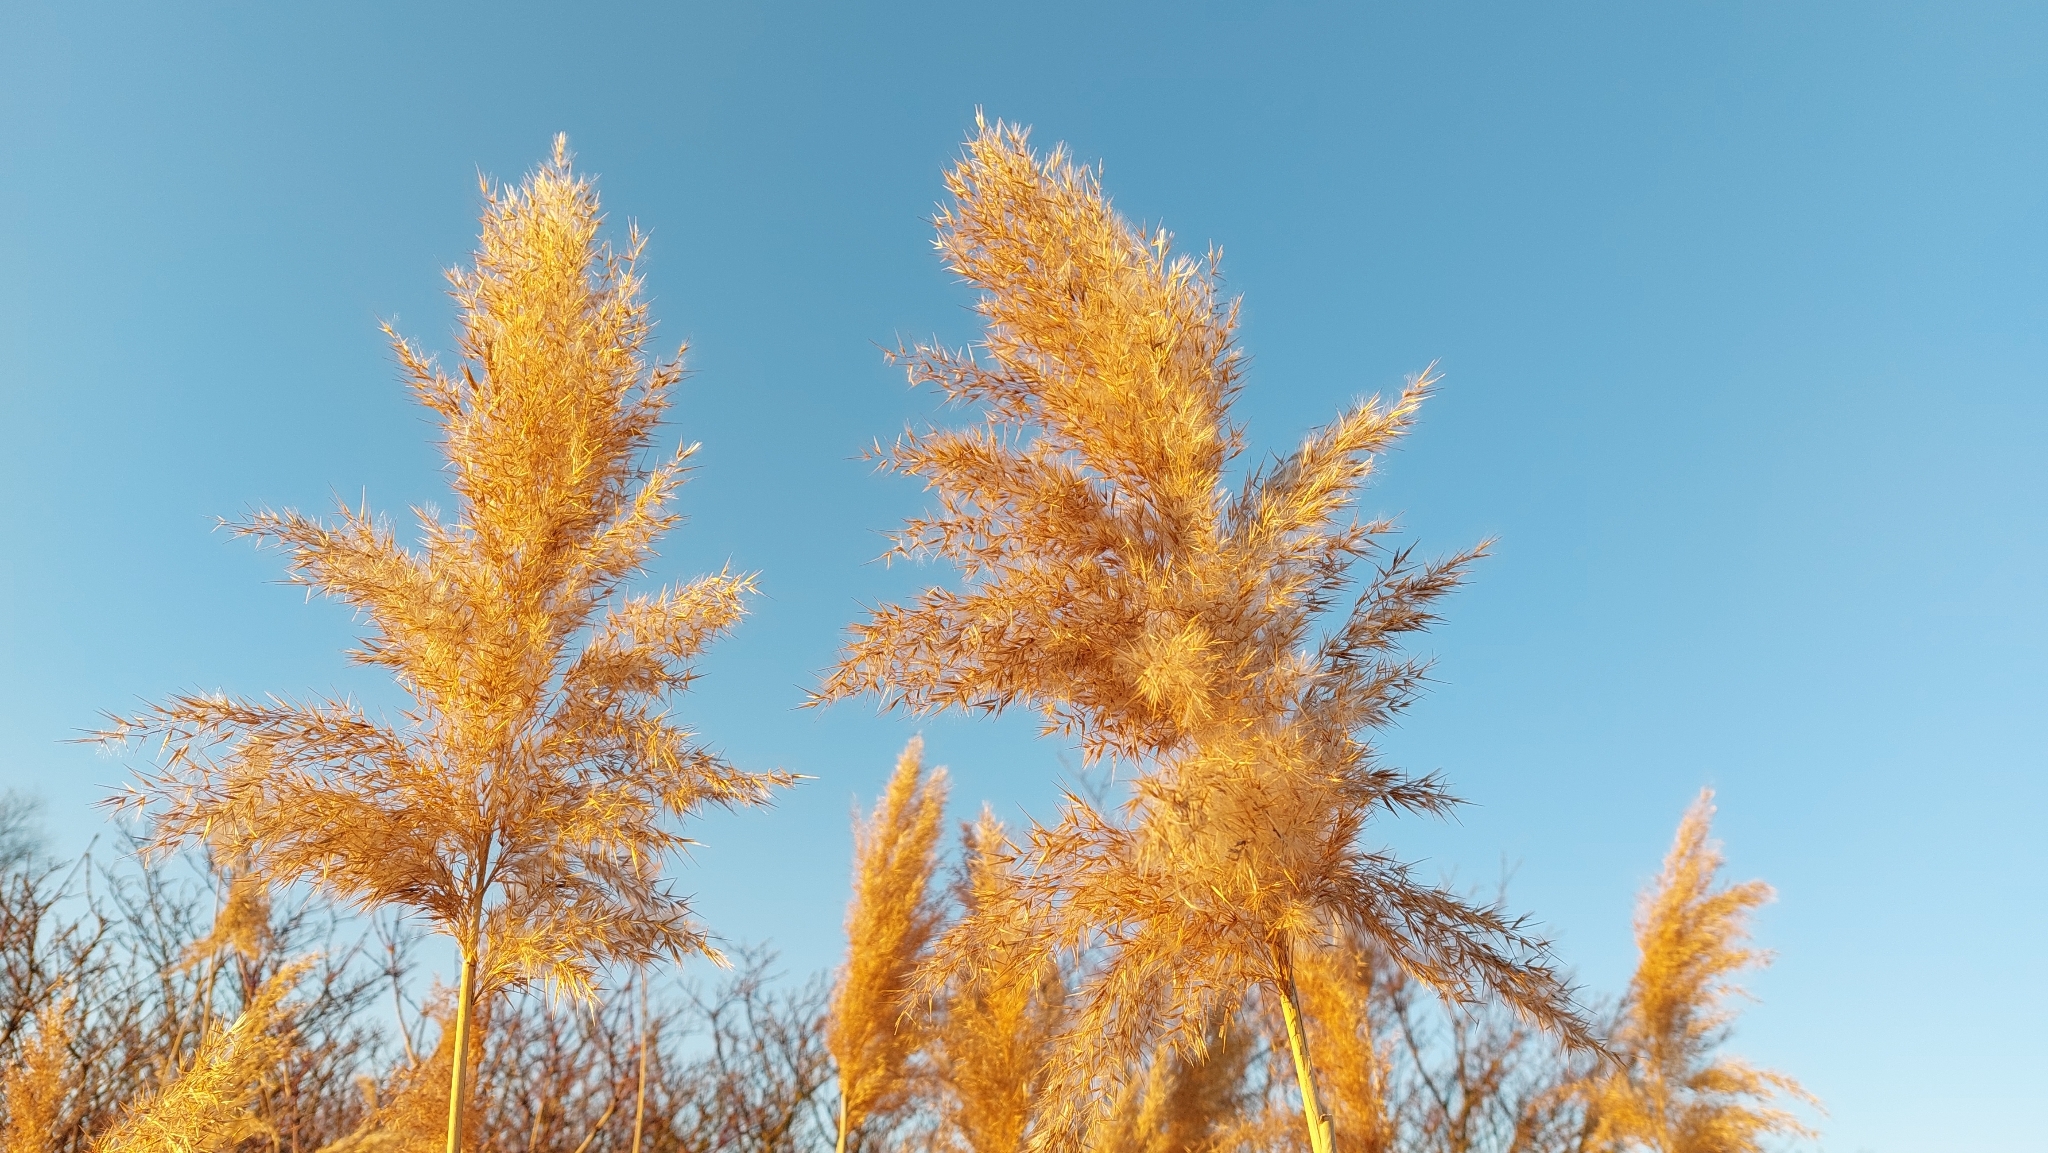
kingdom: Plantae
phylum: Tracheophyta
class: Liliopsida
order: Poales
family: Poaceae
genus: Phragmites
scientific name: Phragmites australis
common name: Common reed
